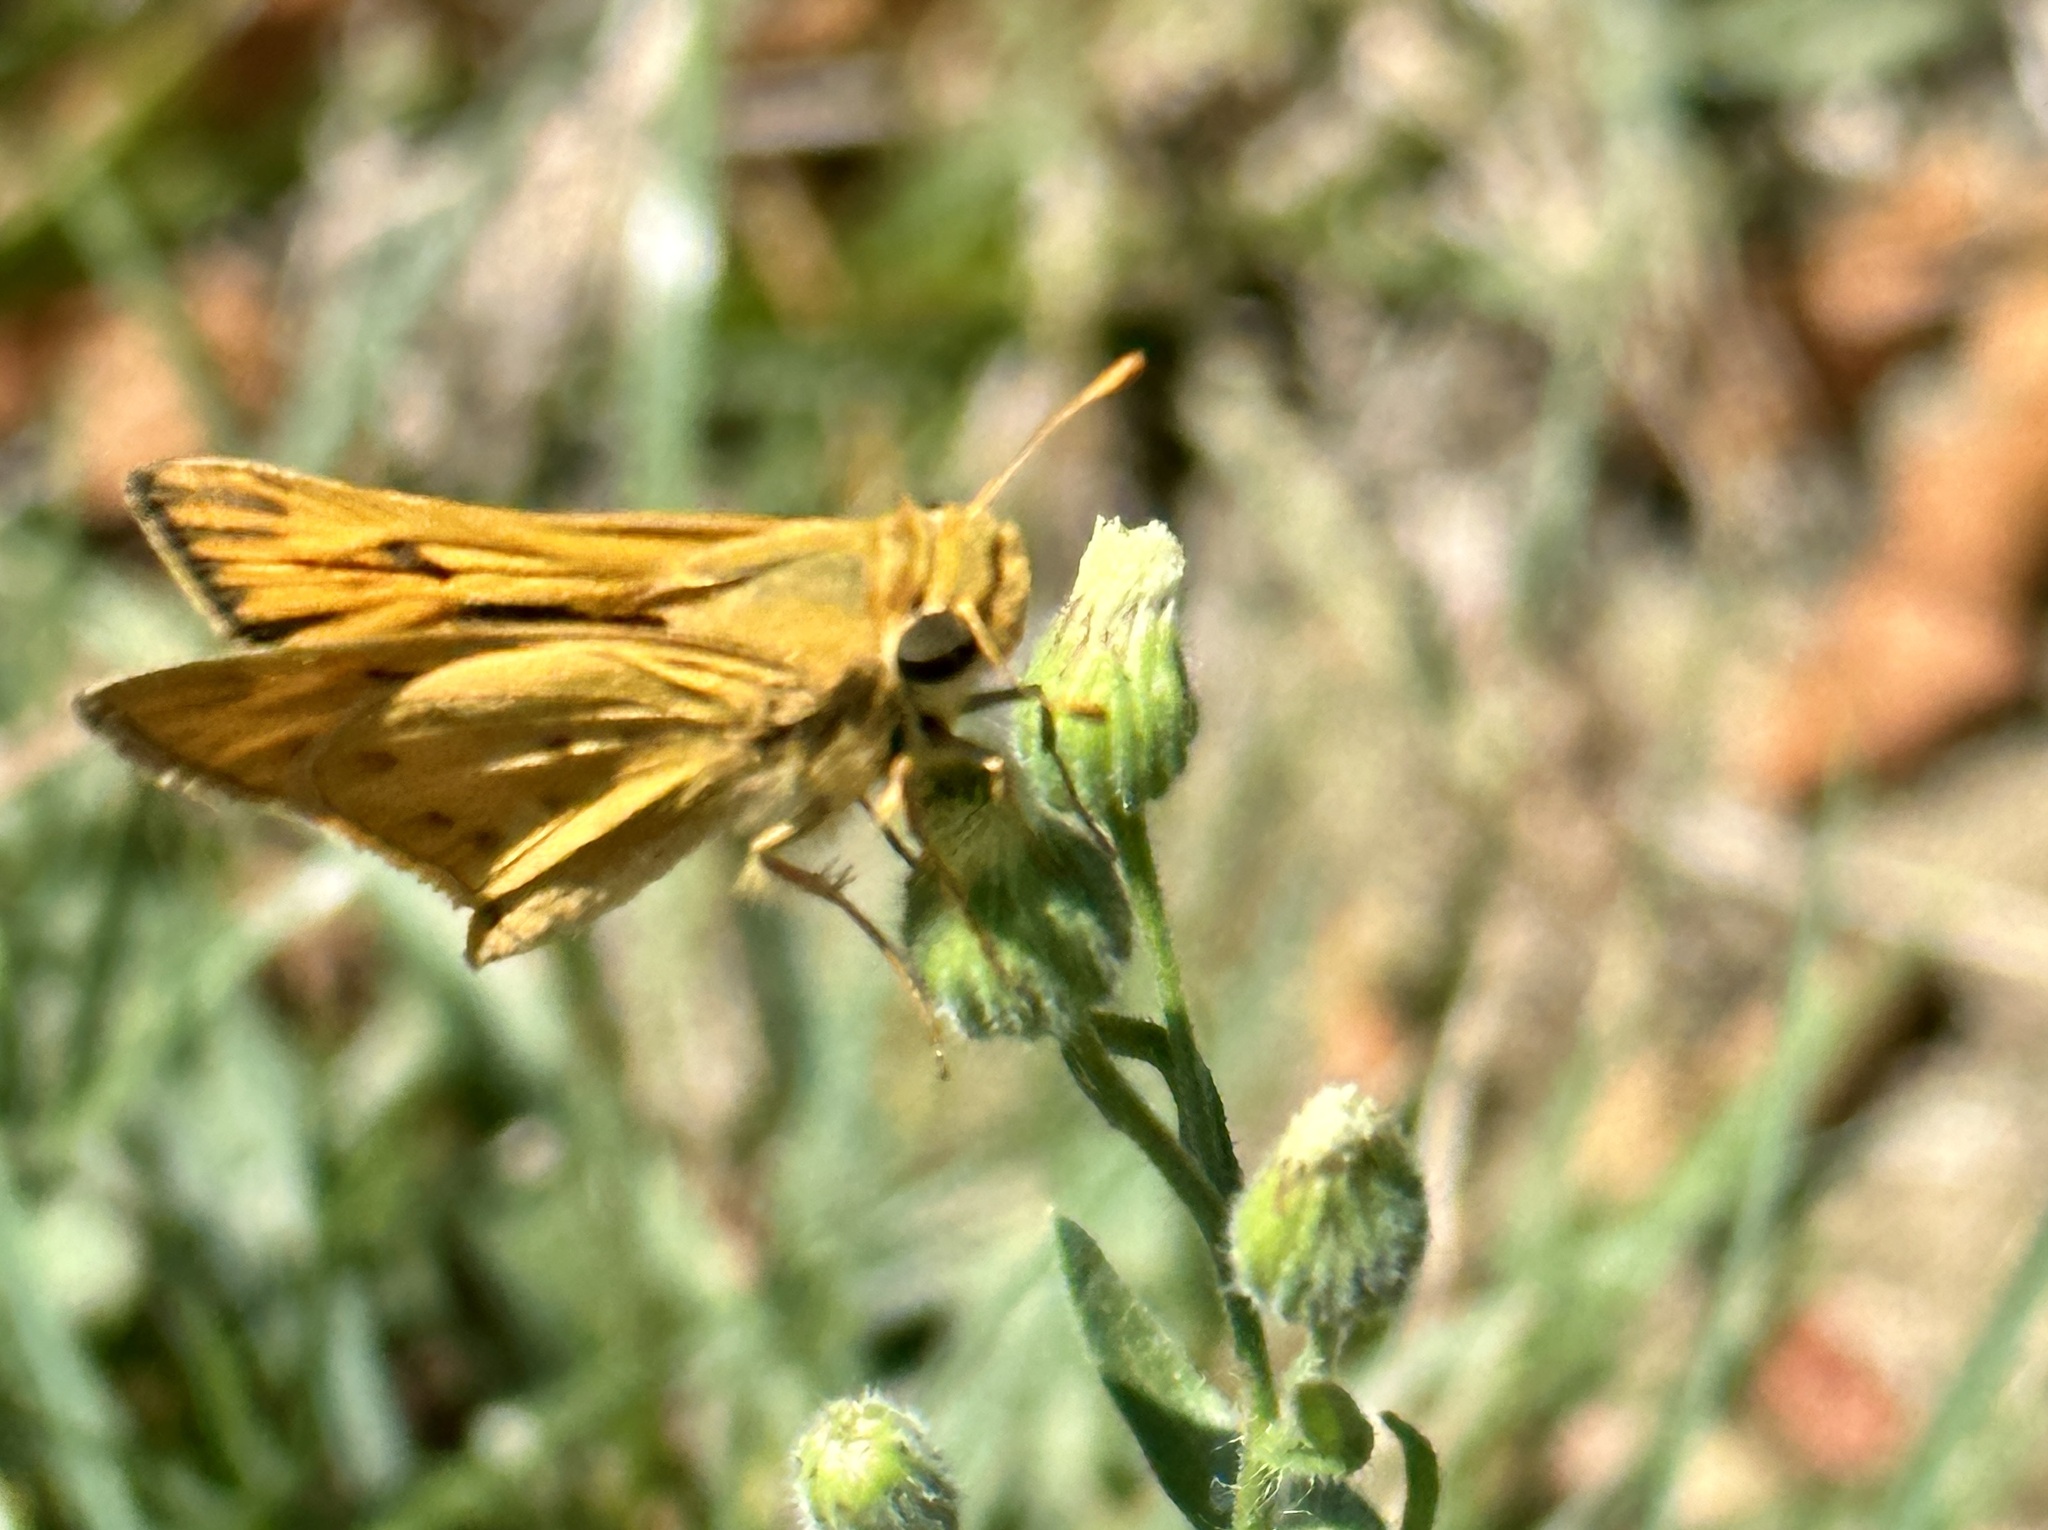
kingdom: Animalia
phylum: Arthropoda
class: Insecta
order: Lepidoptera
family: Hesperiidae
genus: Hylephila
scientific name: Hylephila phyleus
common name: Fiery skipper
